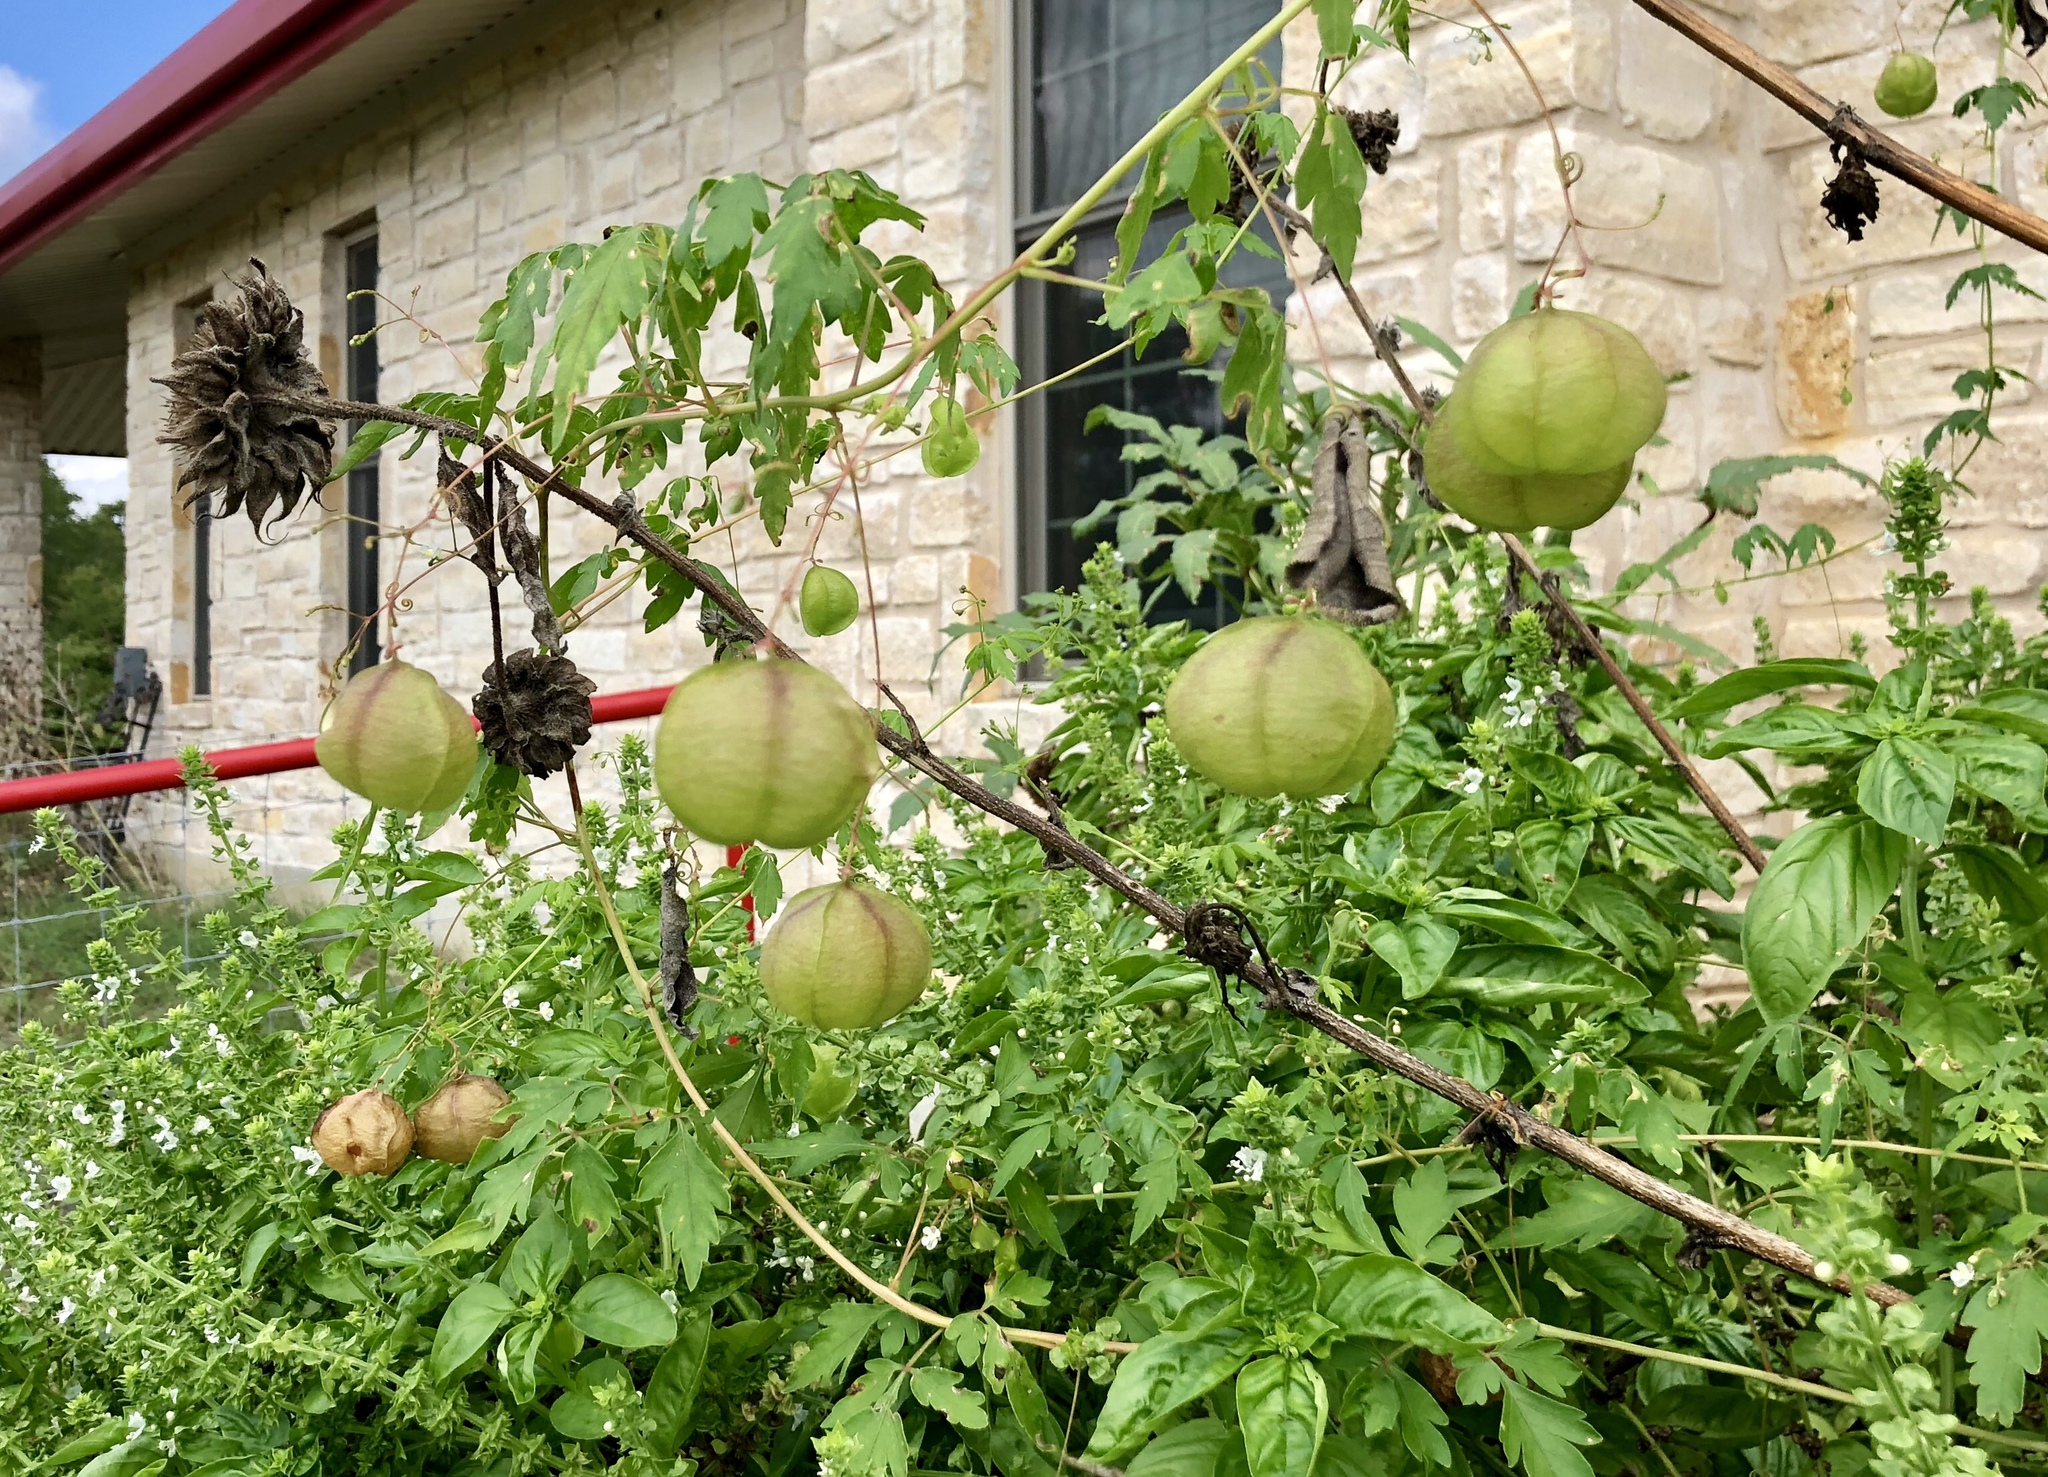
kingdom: Plantae
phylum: Tracheophyta
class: Magnoliopsida
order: Sapindales
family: Sapindaceae
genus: Cardiospermum
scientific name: Cardiospermum halicacabum
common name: Balloon vine
